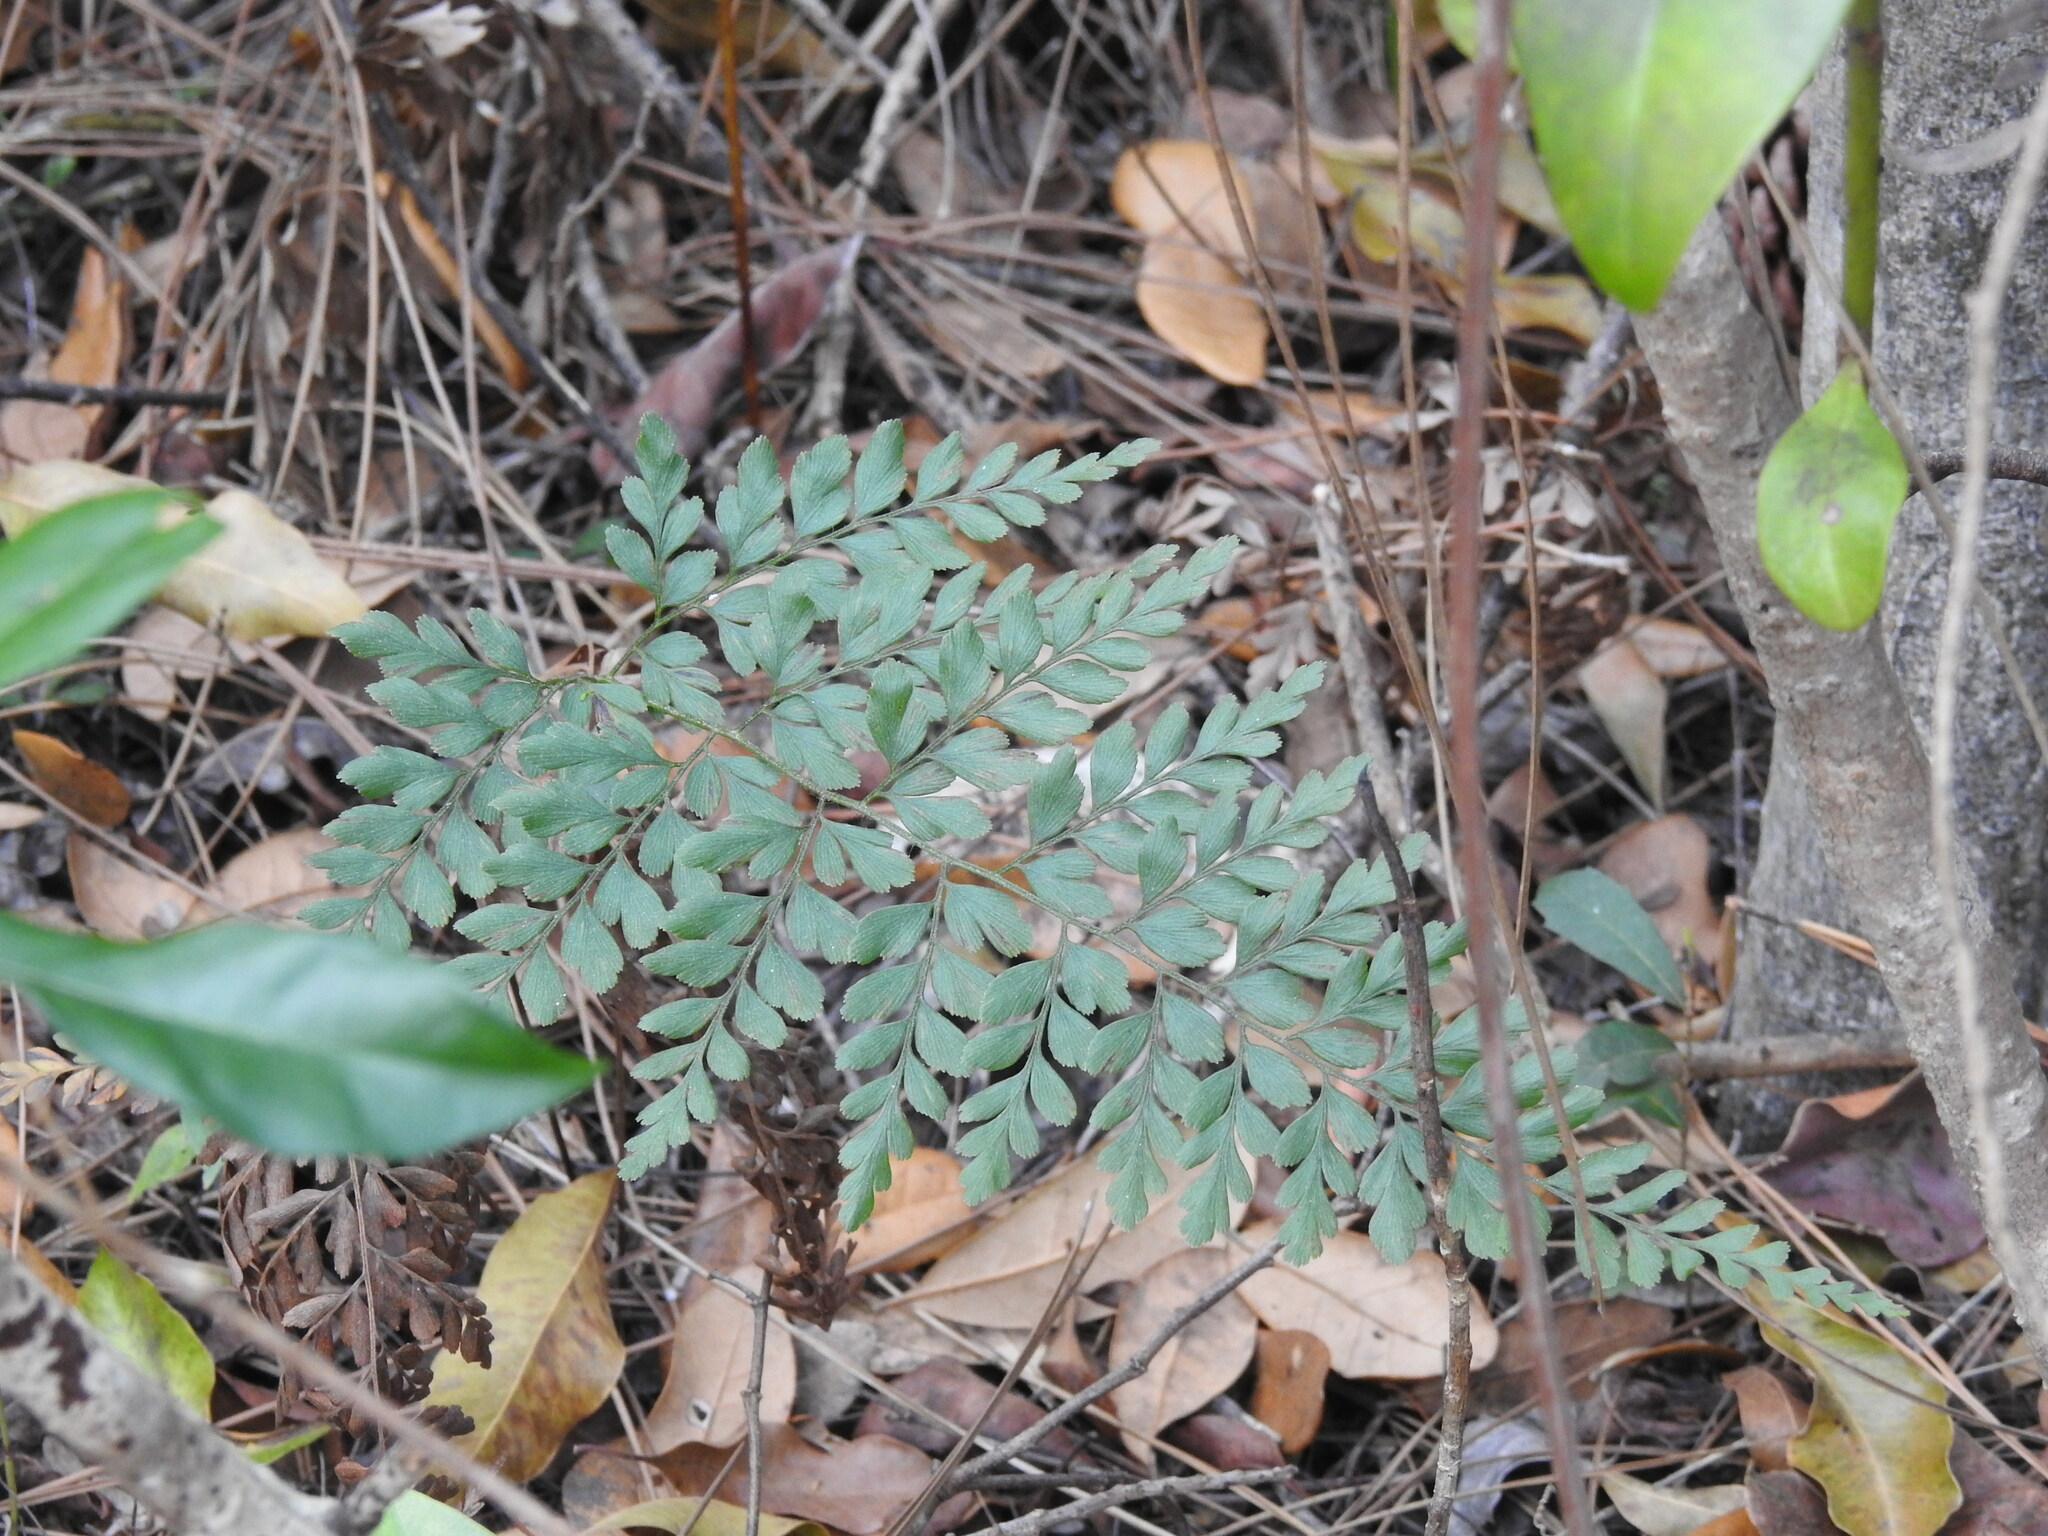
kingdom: Plantae
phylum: Tracheophyta
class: Polypodiopsida
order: Schizaeales
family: Anemiaceae
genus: Anemia
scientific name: Anemia adiantifolia
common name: Pine fern
